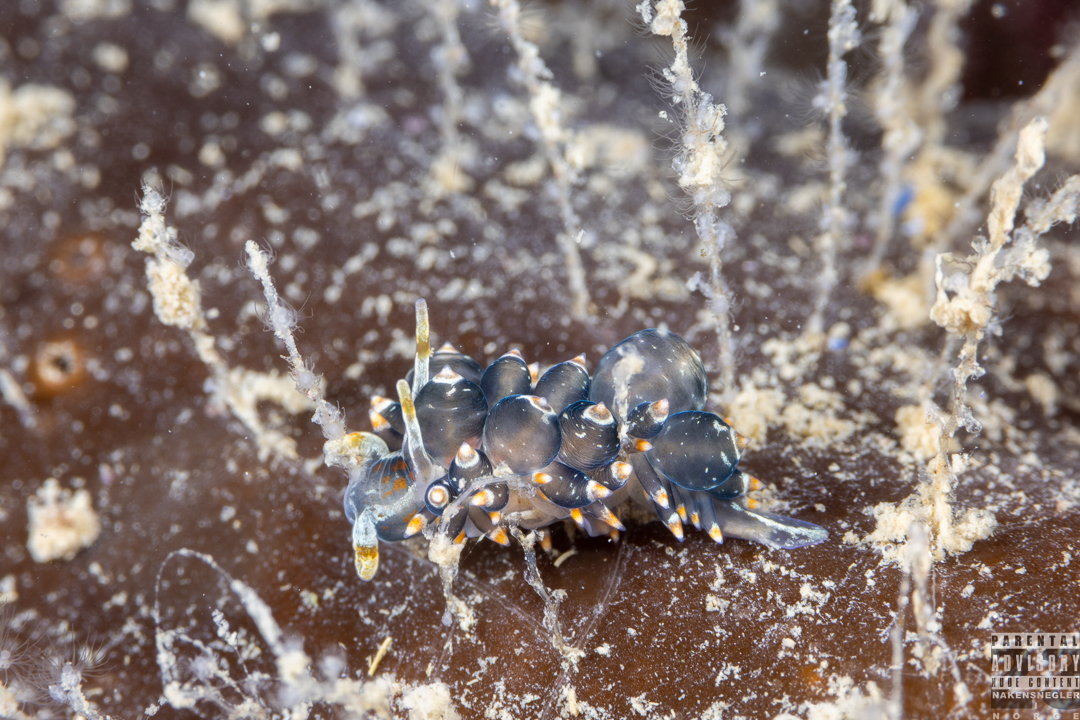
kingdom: Animalia
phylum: Mollusca
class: Gastropoda
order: Nudibranchia
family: Eubranchidae
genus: Amphorina
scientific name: Amphorina viriola
